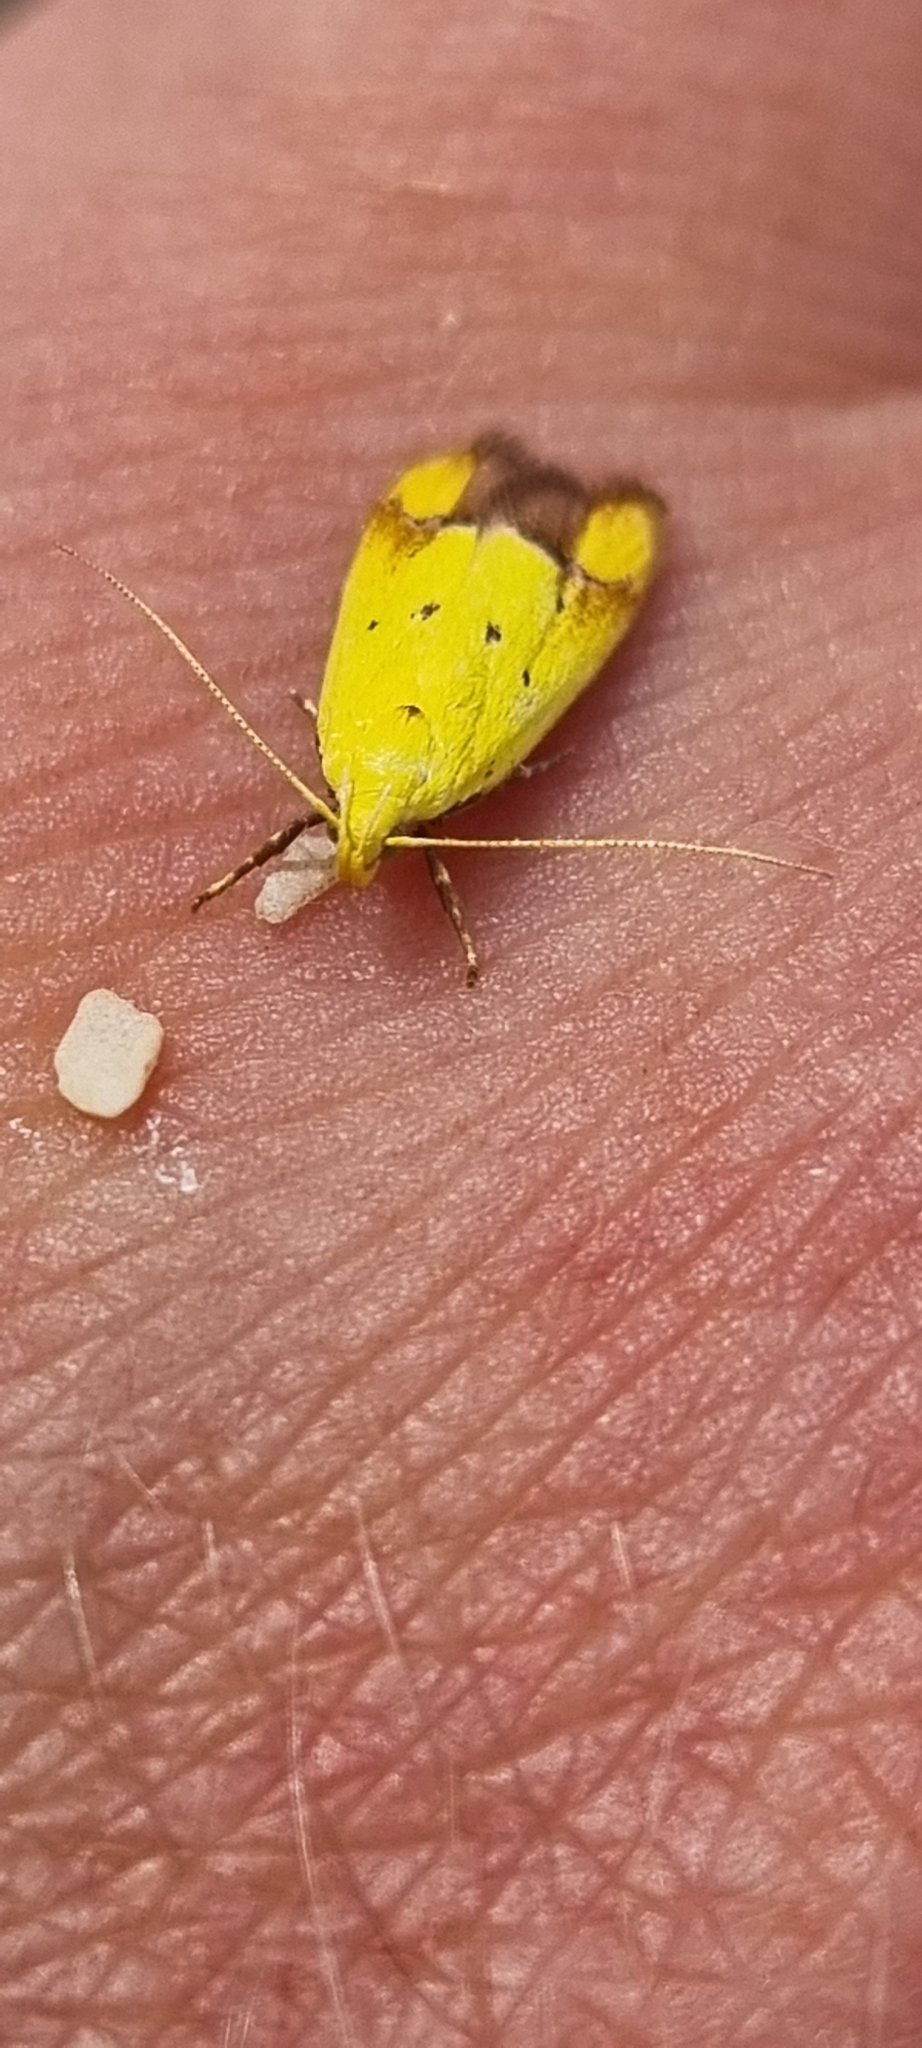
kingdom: Animalia
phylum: Arthropoda
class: Insecta
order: Lepidoptera
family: Oecophoridae
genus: Gymnobathra
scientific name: Gymnobathra flavidella
